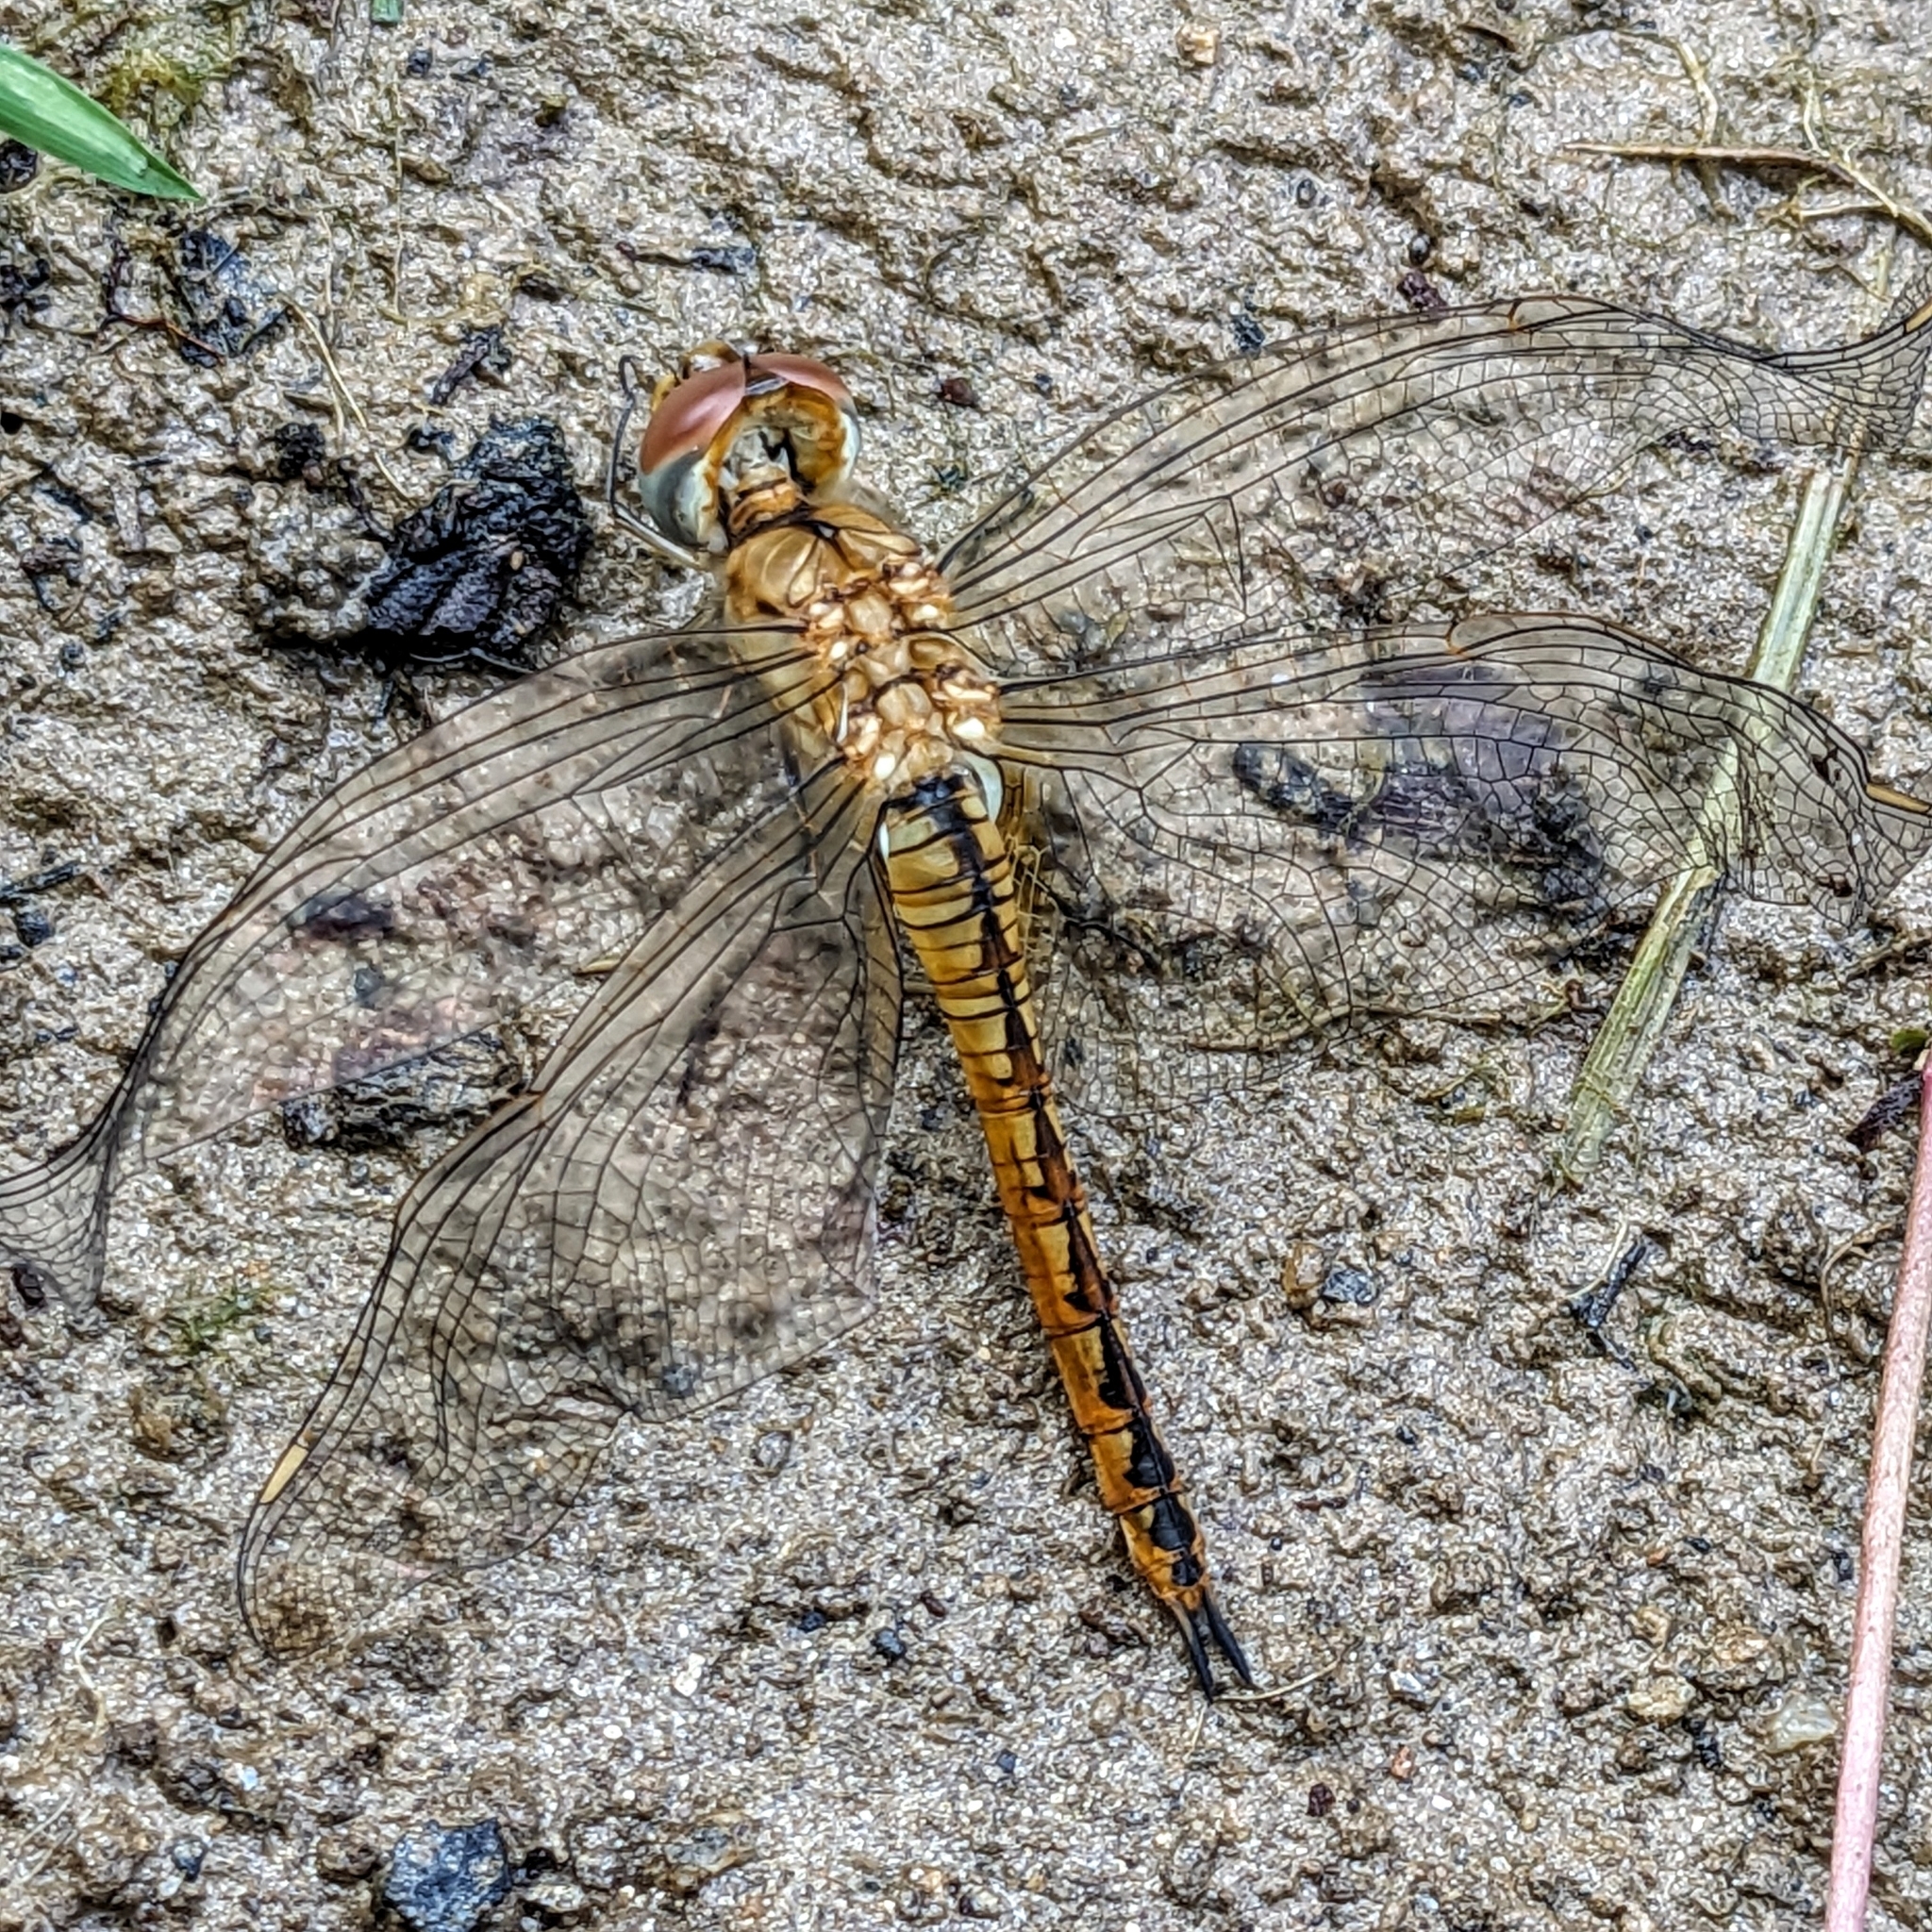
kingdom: Animalia
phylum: Arthropoda
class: Insecta
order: Odonata
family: Libellulidae
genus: Pantala
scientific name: Pantala flavescens
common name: Wandering glider
